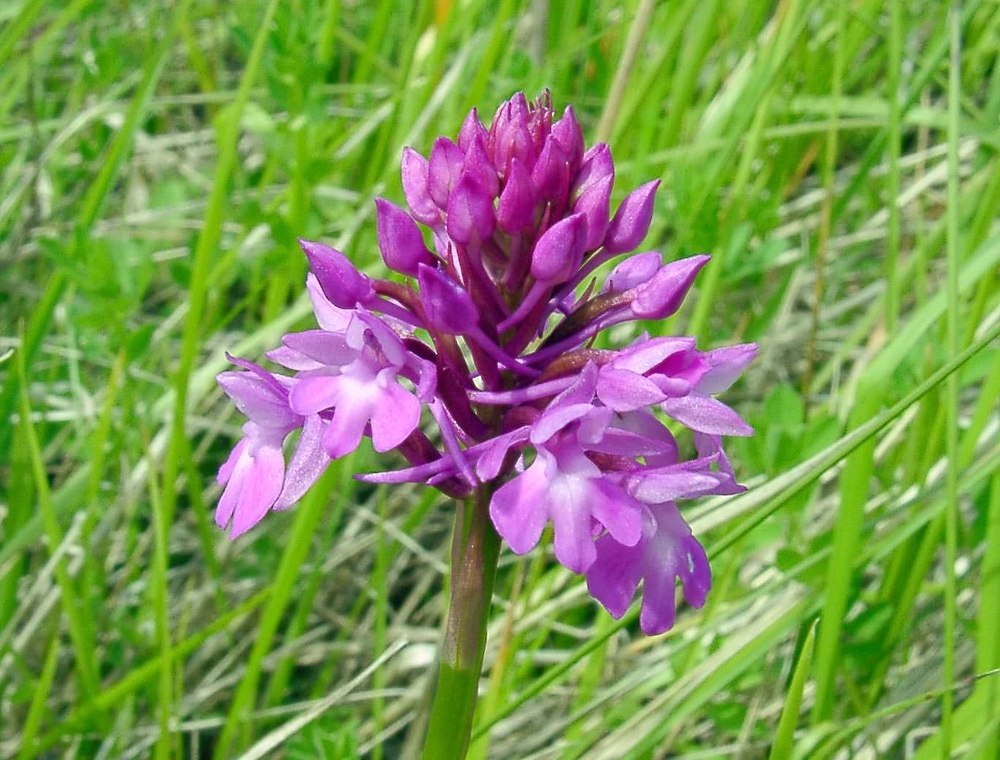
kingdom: Plantae
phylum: Tracheophyta
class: Liliopsida
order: Asparagales
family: Orchidaceae
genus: Anacamptis
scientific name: Anacamptis pyramidalis
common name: Pyramidal orchid
